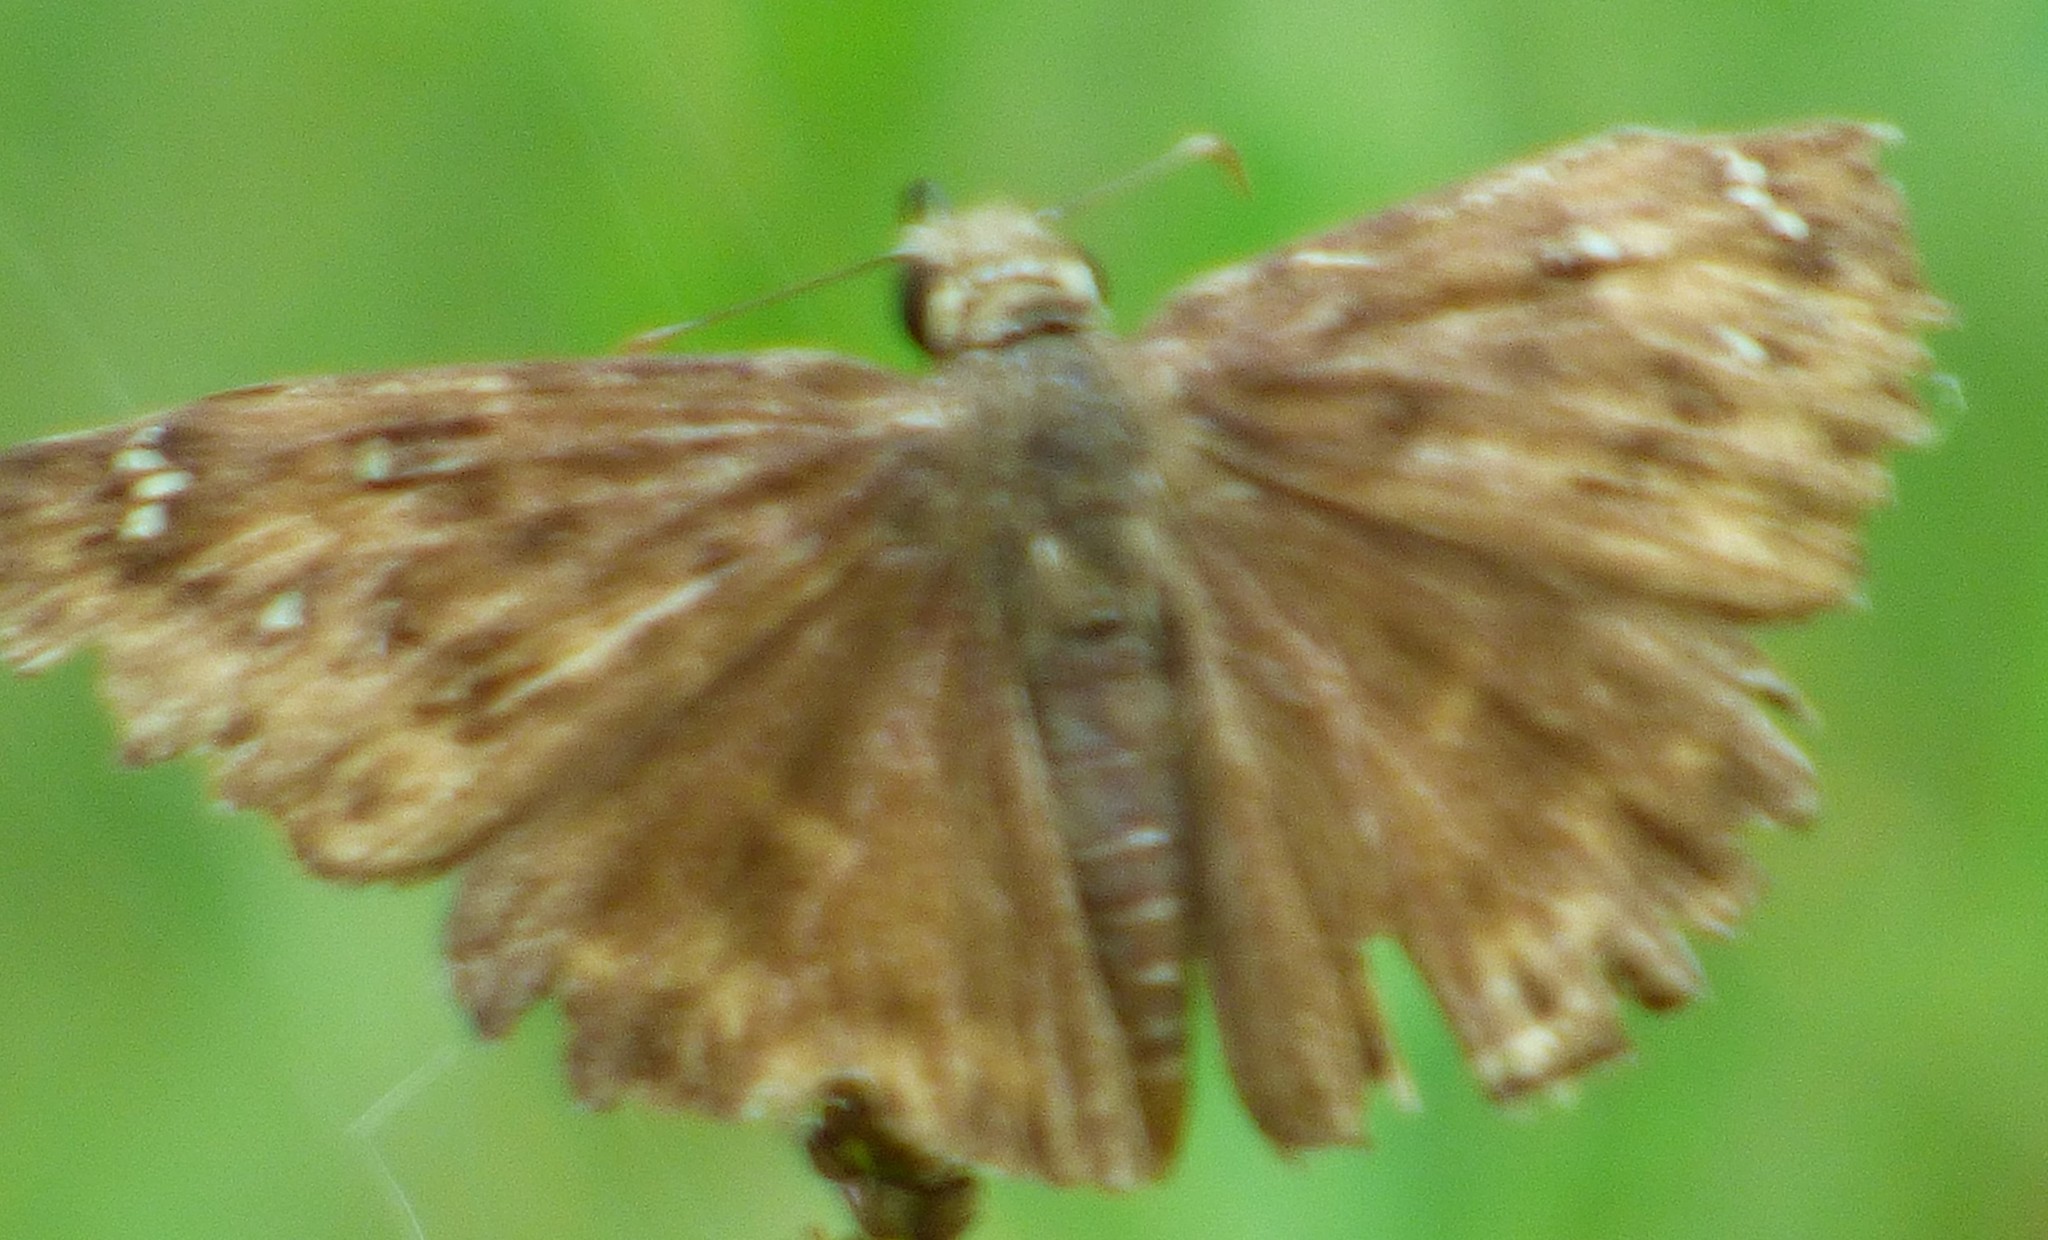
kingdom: Animalia
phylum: Arthropoda
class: Insecta
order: Lepidoptera
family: Hesperiidae
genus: Erynnis
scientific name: Erynnis horatius
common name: Horace's duskywing
